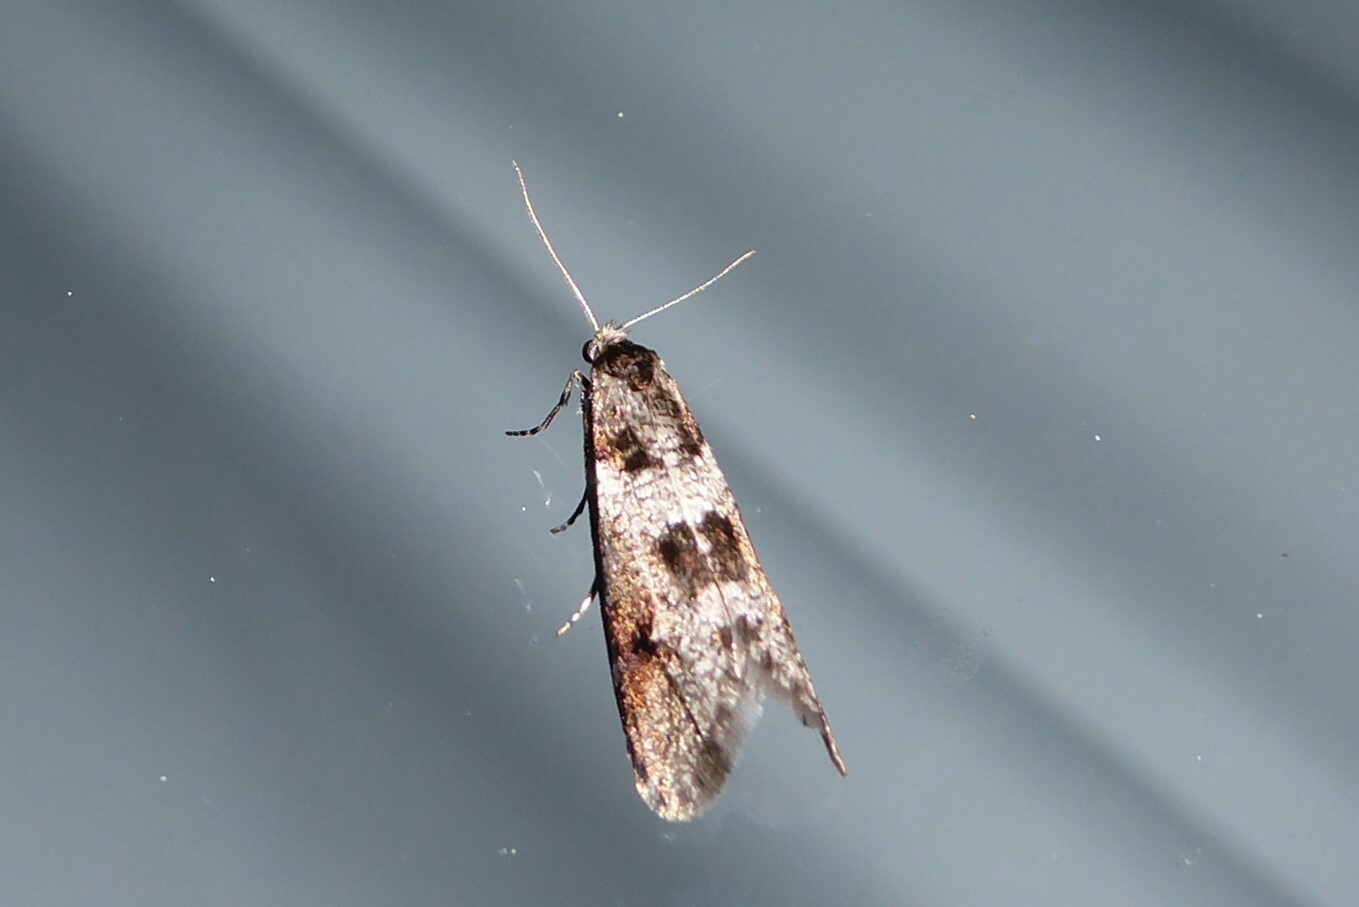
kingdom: Animalia
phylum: Arthropoda
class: Insecta
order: Lepidoptera
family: Psychidae
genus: Lepidoscia
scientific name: Lepidoscia heliochares
